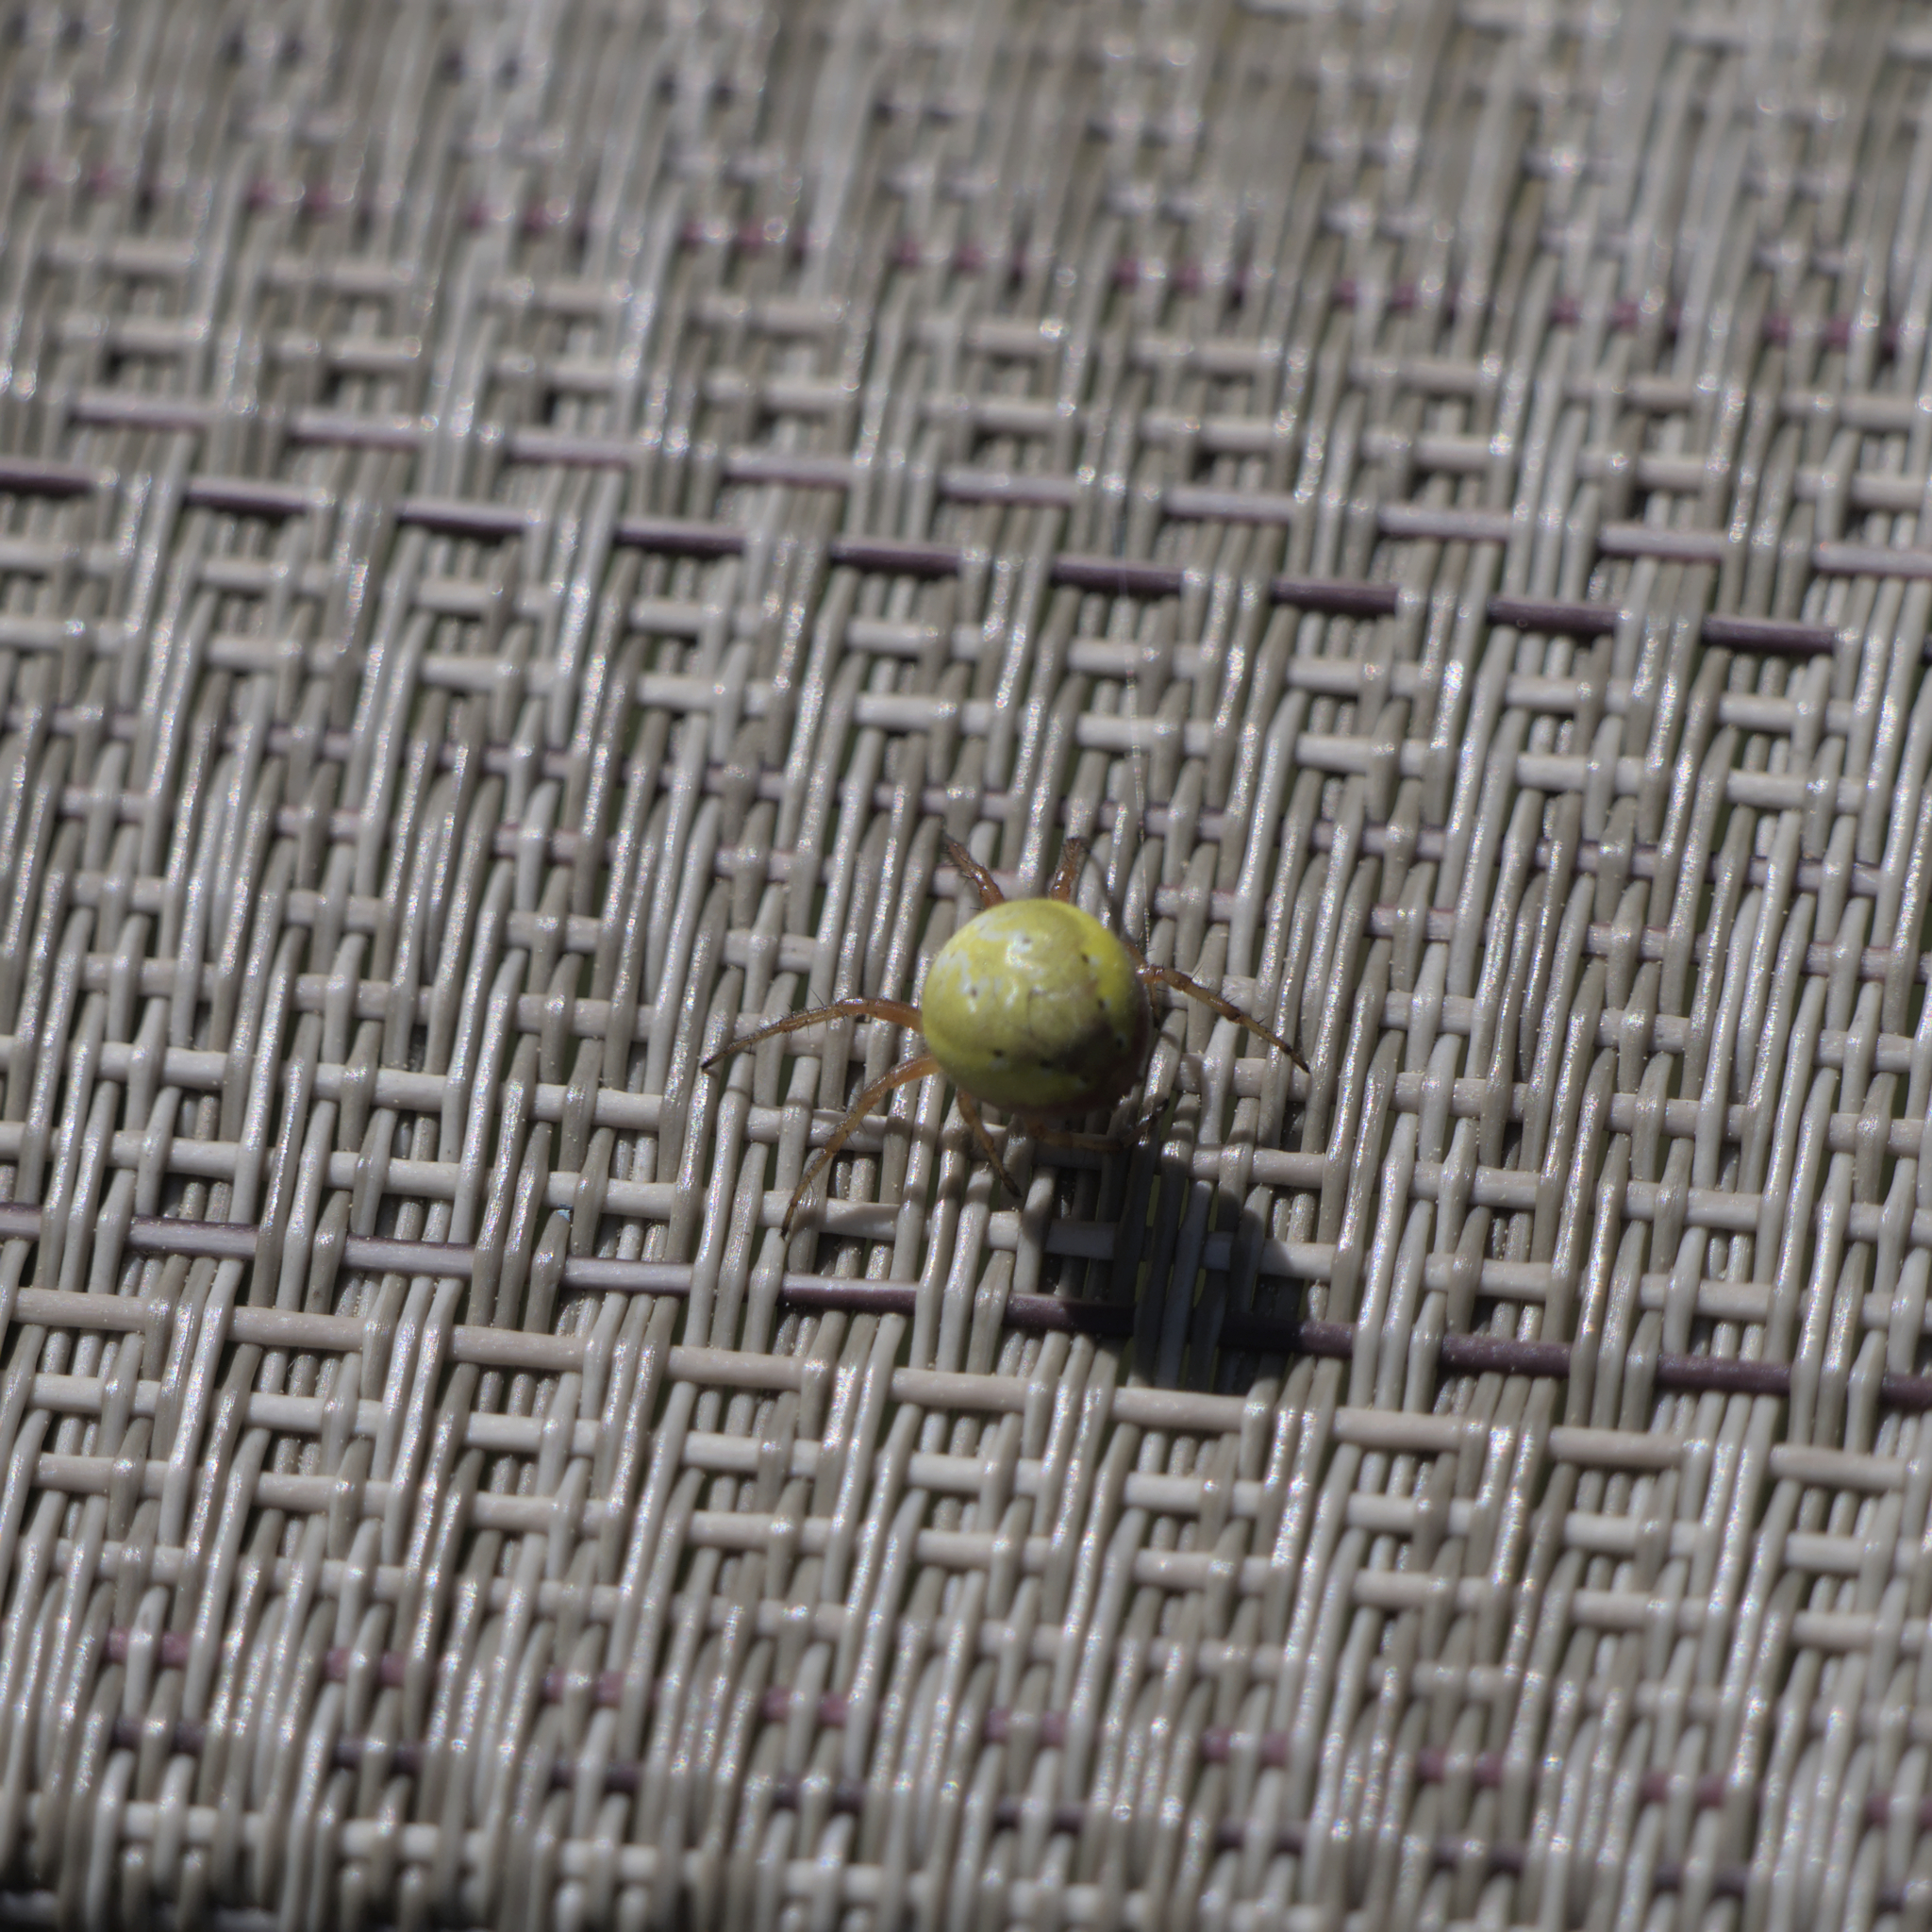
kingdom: Animalia
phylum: Arthropoda
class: Arachnida
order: Araneae
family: Araneidae
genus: Araniella
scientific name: Araniella displicata
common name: Sixspotted orb weaver
